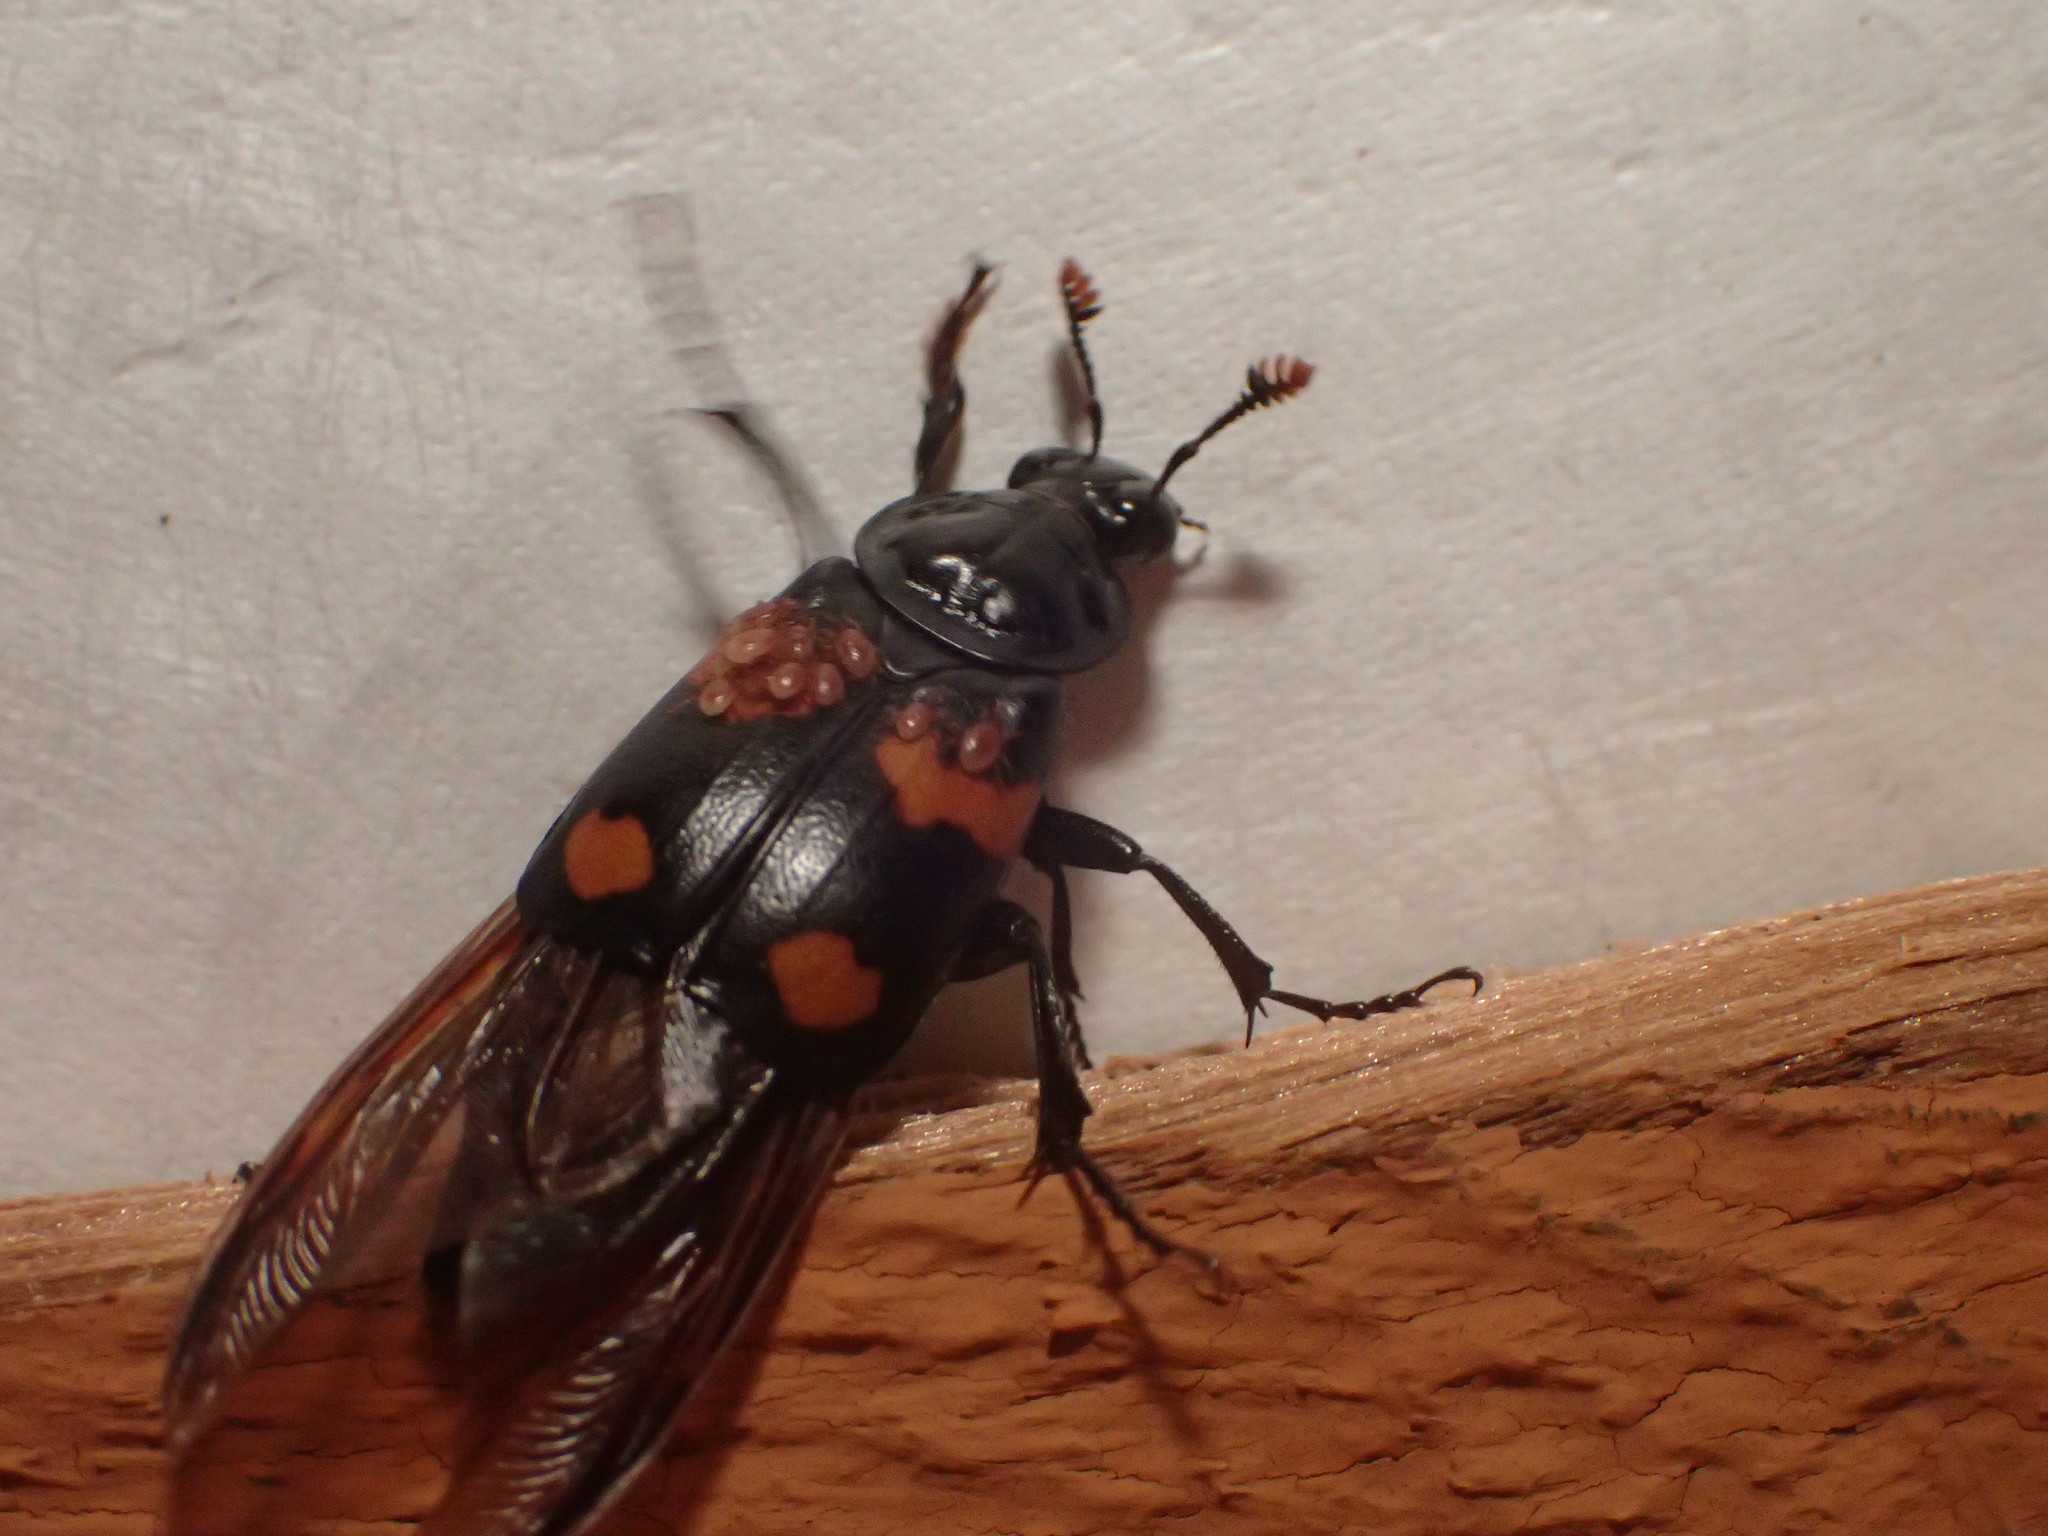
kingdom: Animalia
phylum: Arthropoda
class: Insecta
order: Coleoptera
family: Staphylinidae
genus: Nicrophorus
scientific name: Nicrophorus orbicollis
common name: Roundneck sexton beetle
